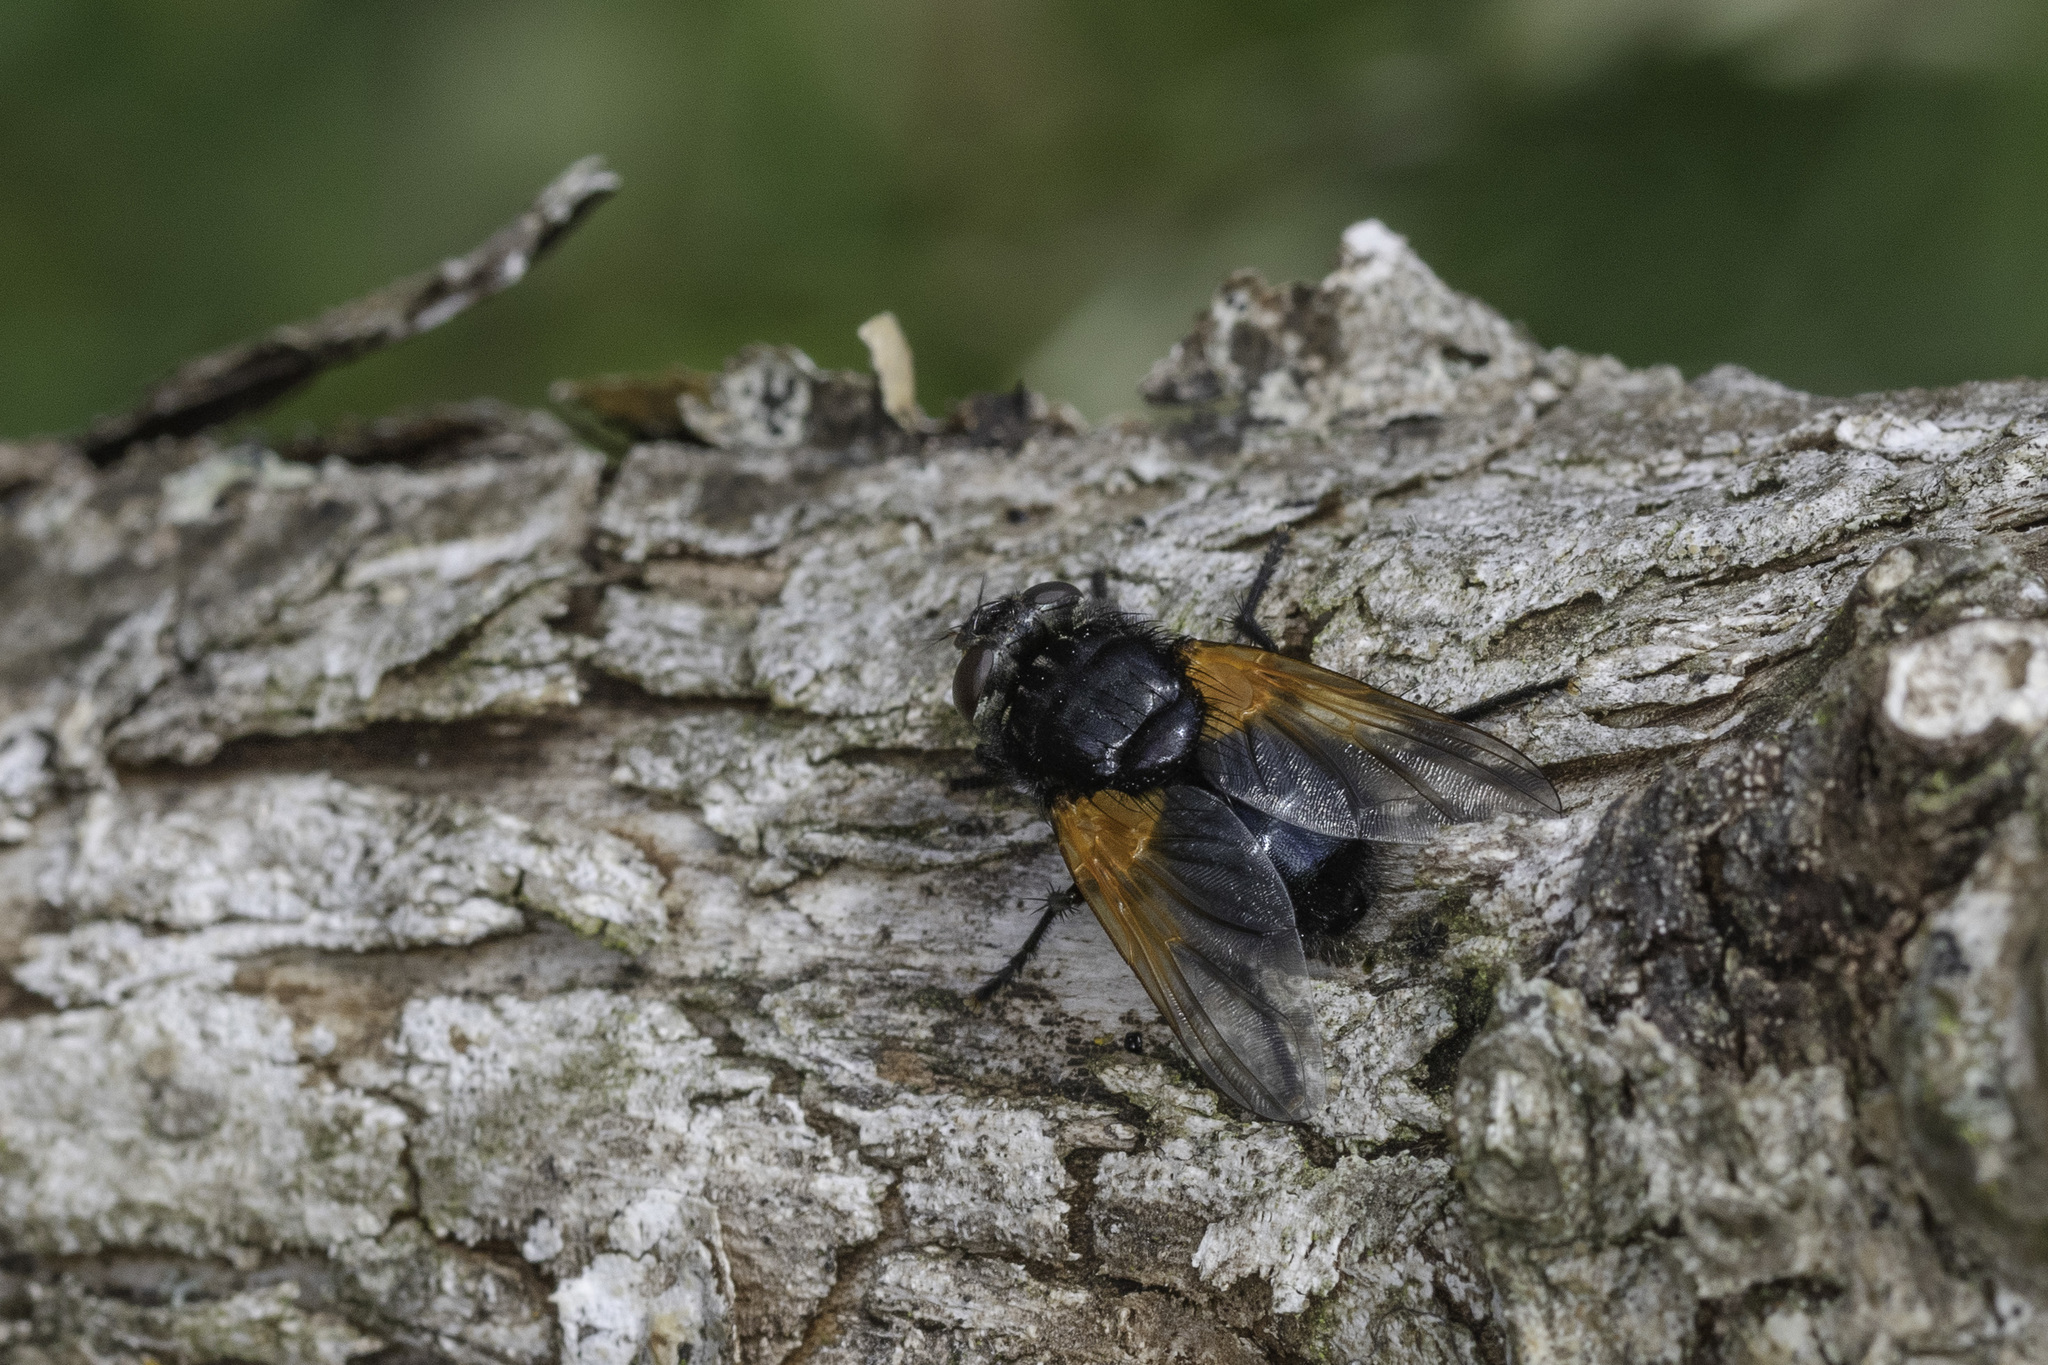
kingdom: Animalia
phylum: Arthropoda
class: Insecta
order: Diptera
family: Muscidae
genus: Mesembrina
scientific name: Mesembrina meridiana
